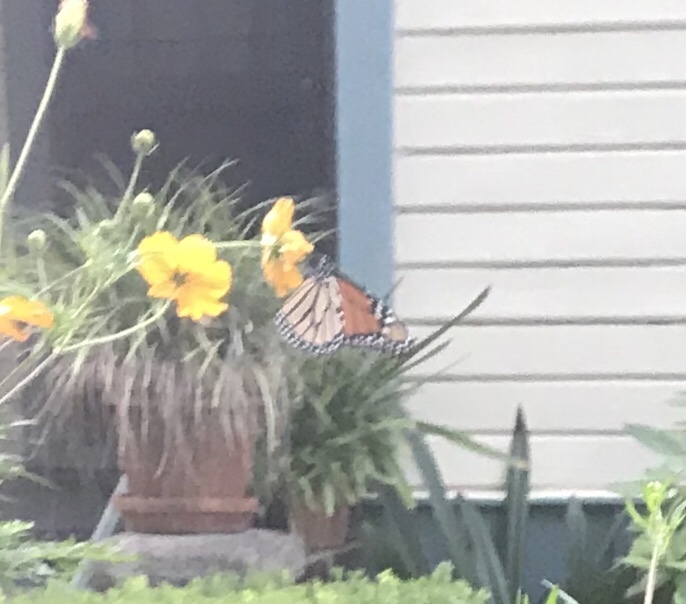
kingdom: Animalia
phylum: Arthropoda
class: Insecta
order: Lepidoptera
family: Nymphalidae
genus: Danaus
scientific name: Danaus plexippus
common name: Monarch
